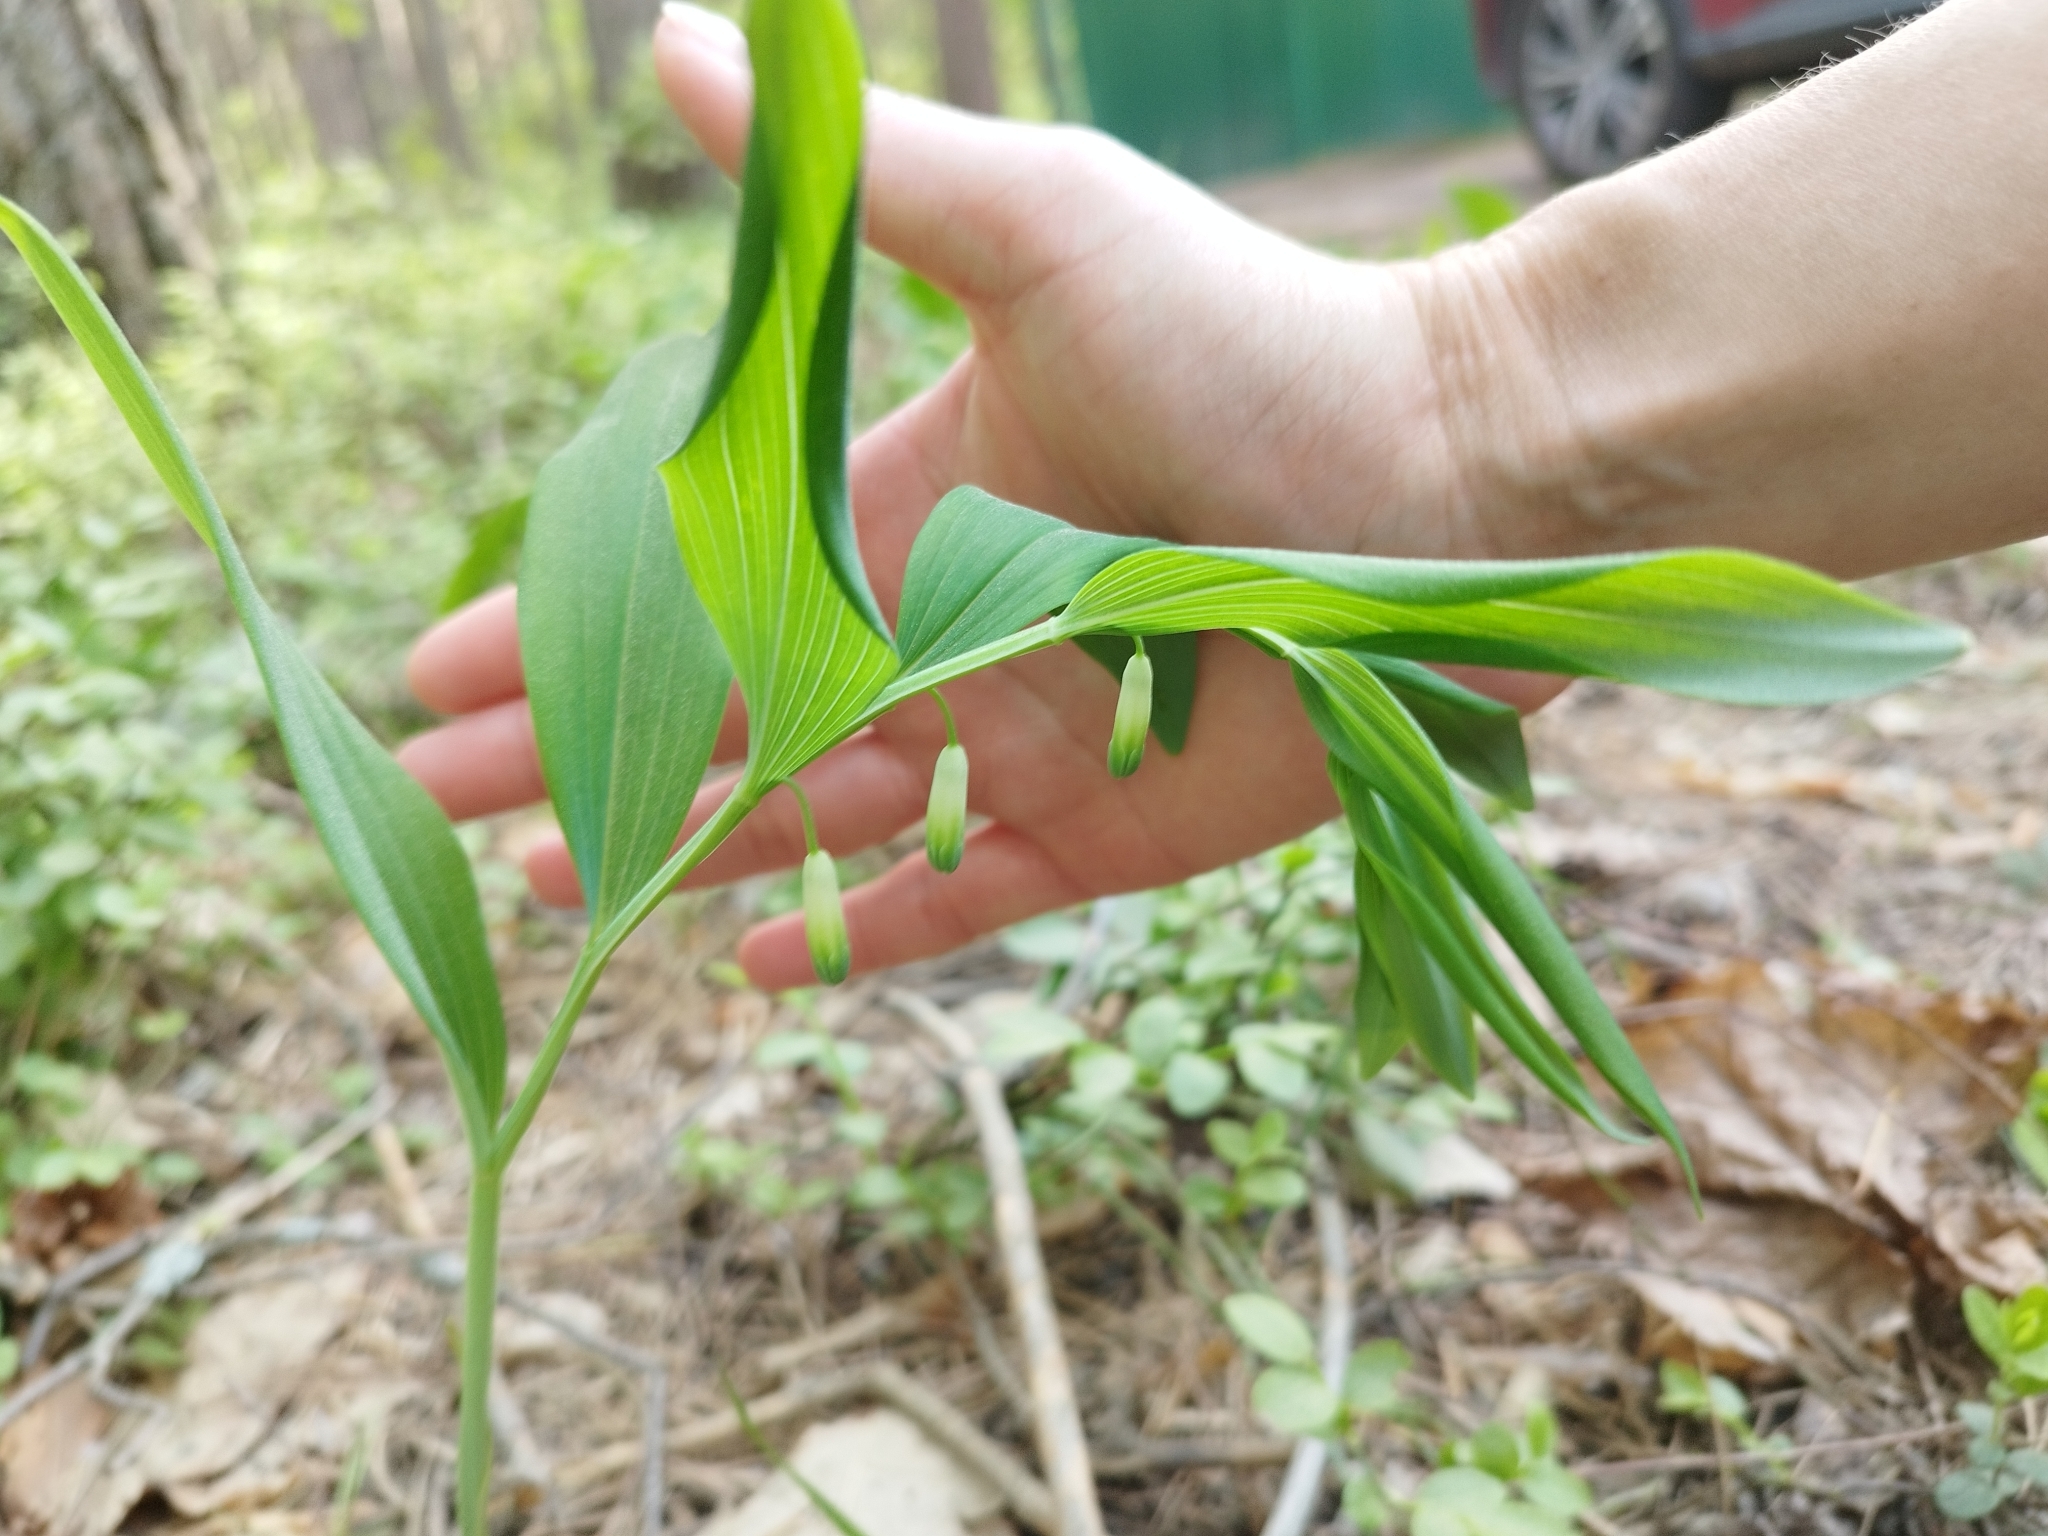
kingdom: Plantae
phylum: Tracheophyta
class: Liliopsida
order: Asparagales
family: Asparagaceae
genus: Polygonatum
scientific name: Polygonatum odoratum
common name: Angular solomon's-seal
